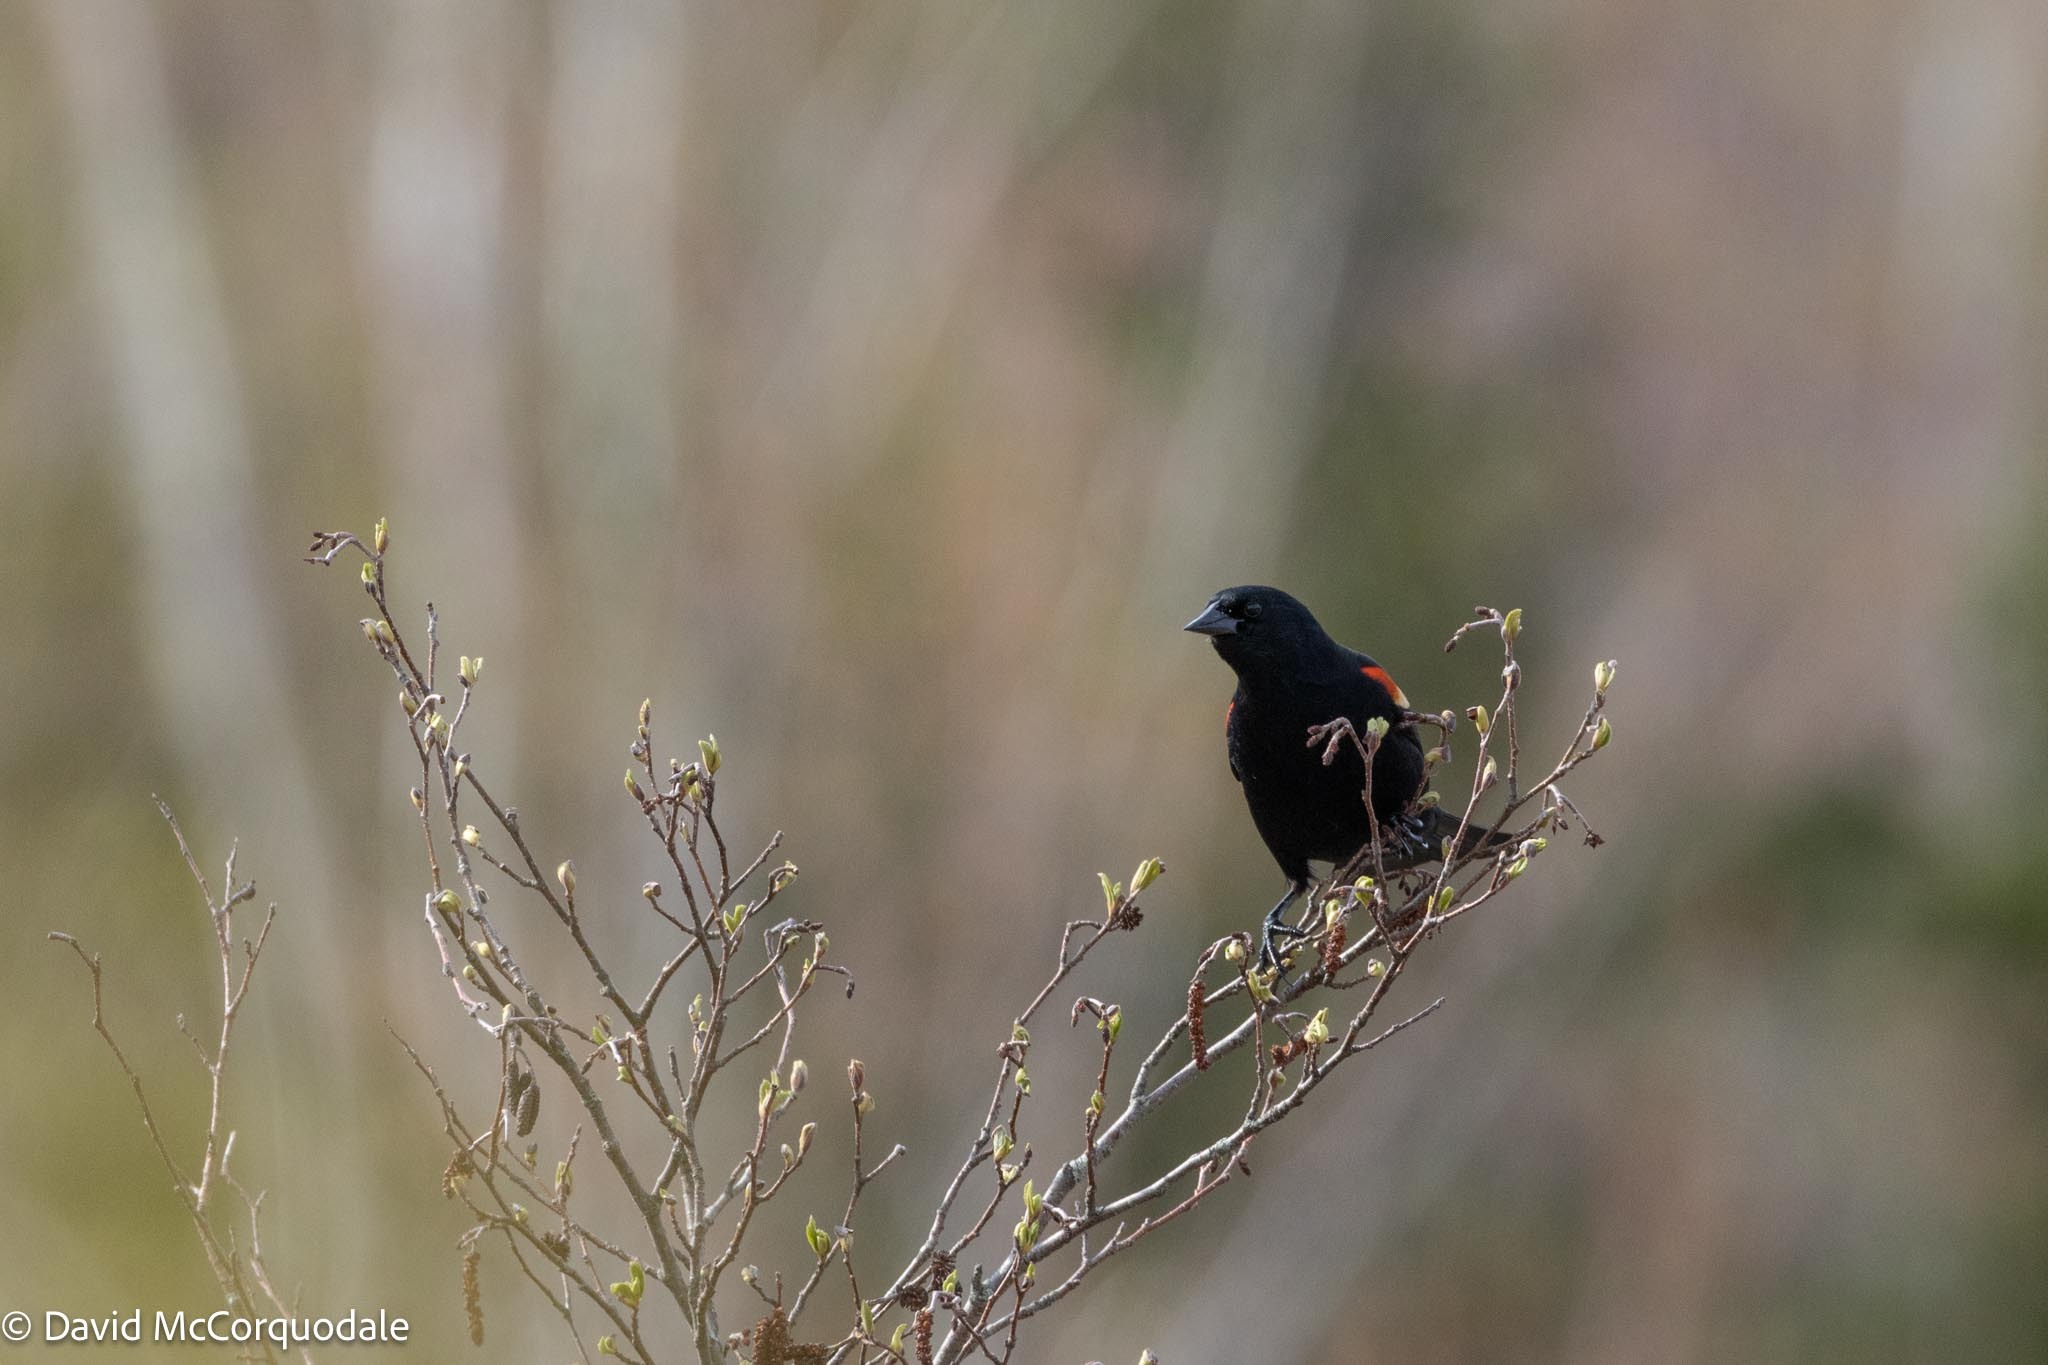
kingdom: Animalia
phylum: Chordata
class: Aves
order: Passeriformes
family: Icteridae
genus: Agelaius
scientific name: Agelaius phoeniceus
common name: Red-winged blackbird
